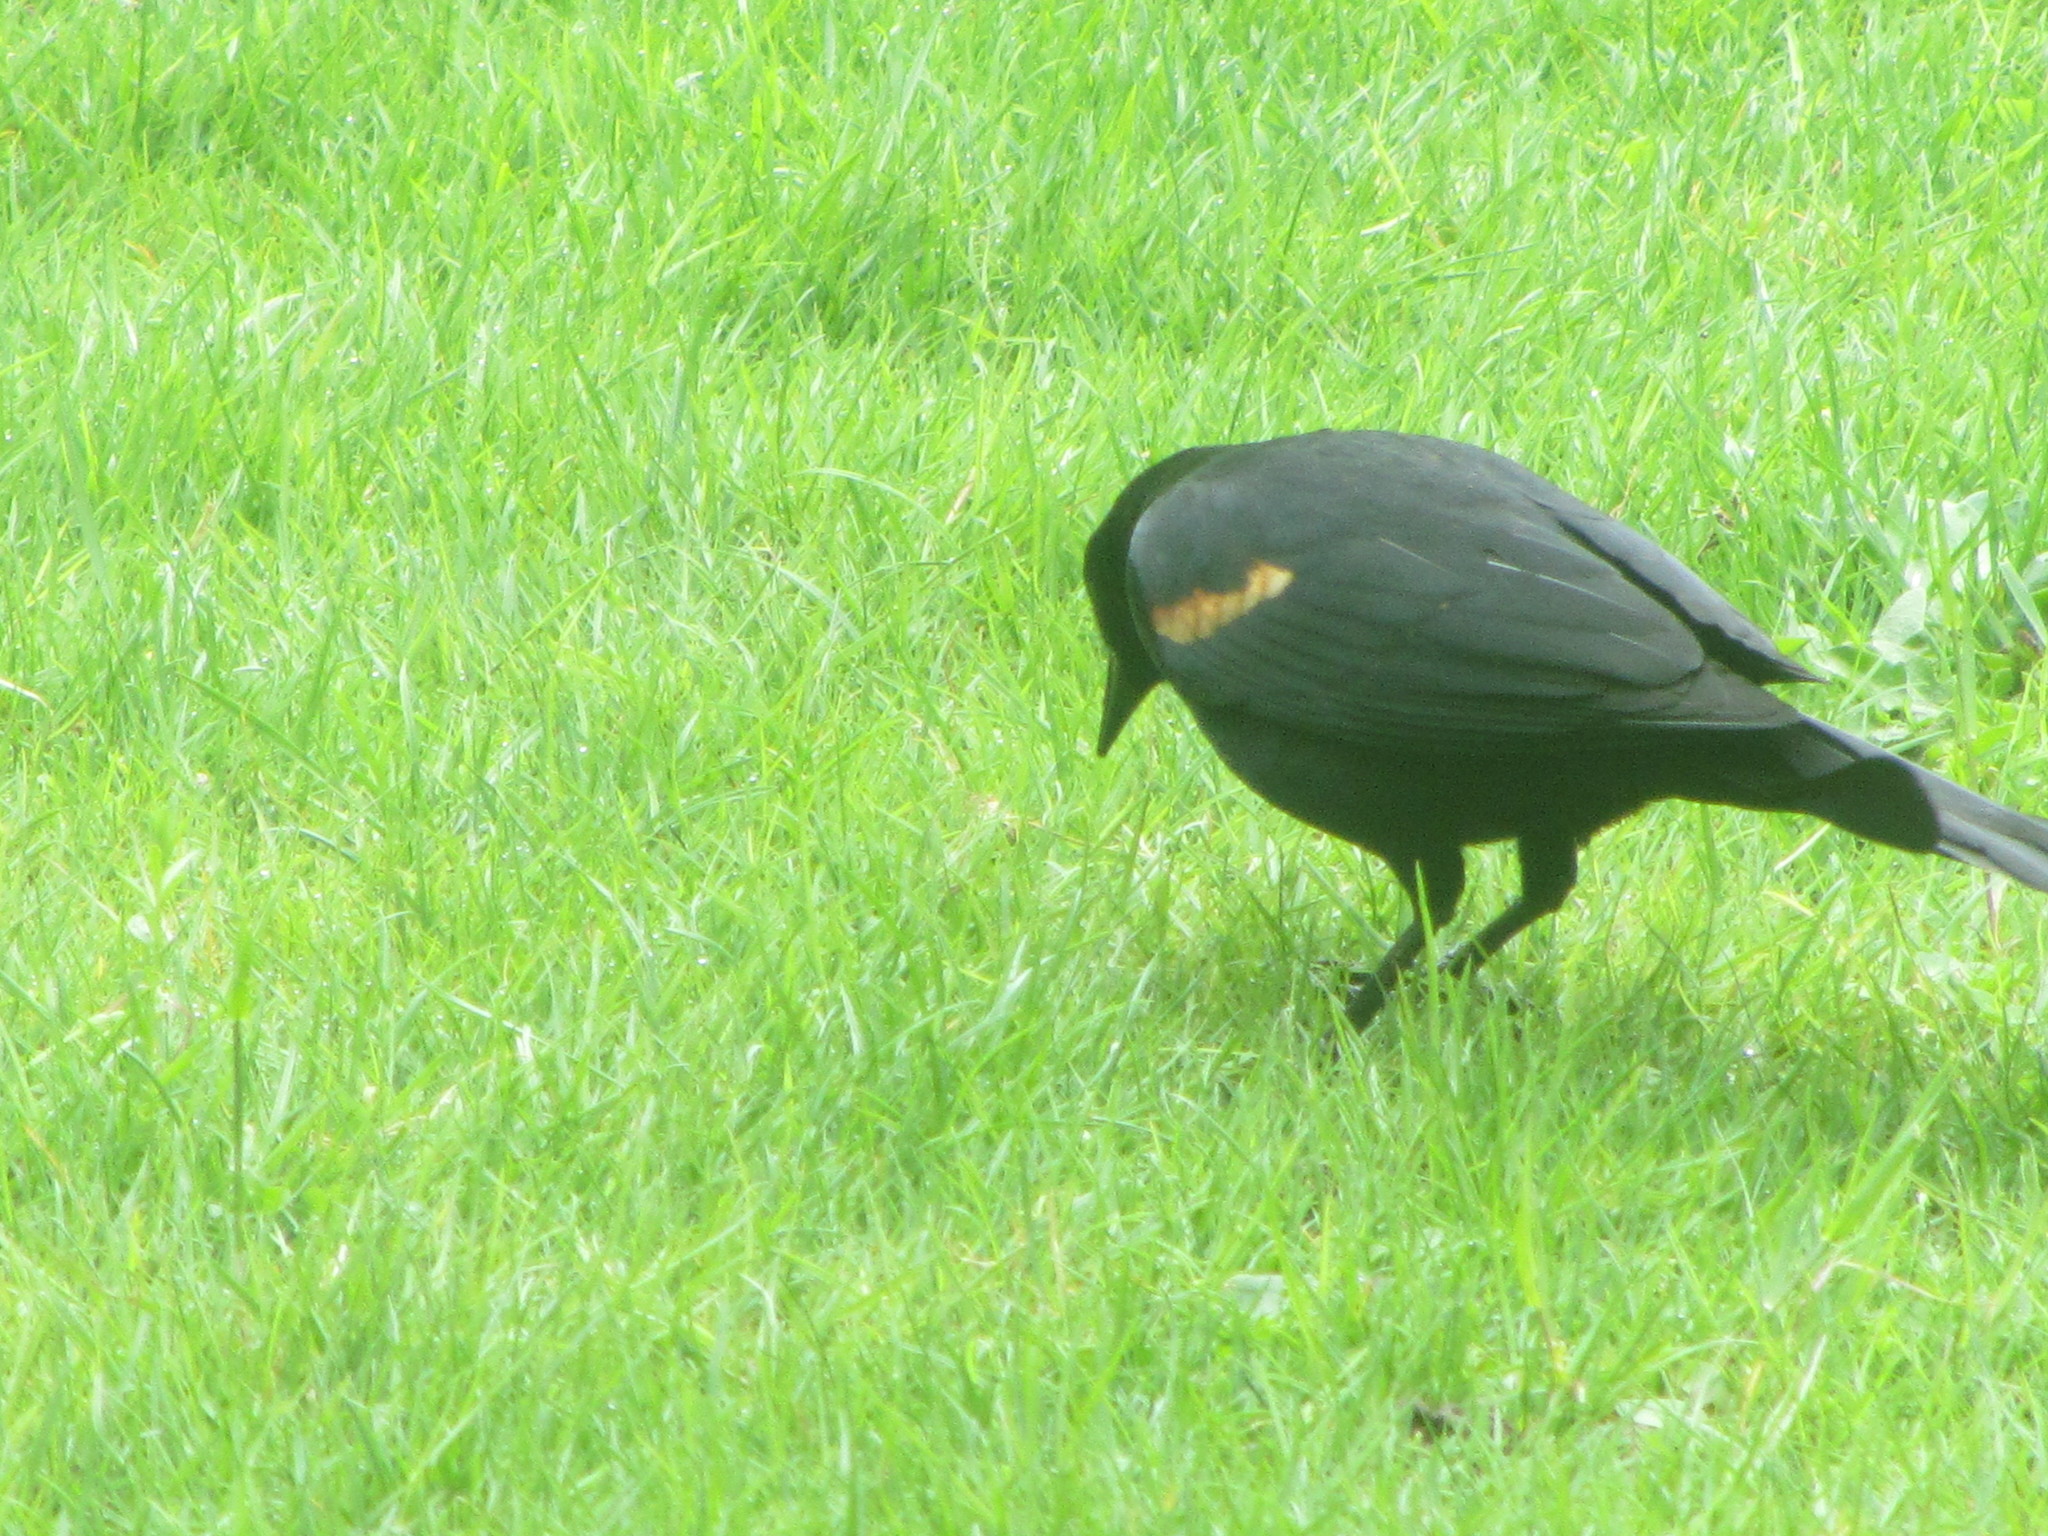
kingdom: Animalia
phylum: Chordata
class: Aves
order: Passeriformes
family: Icteridae
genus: Agelaius
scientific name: Agelaius phoeniceus
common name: Red-winged blackbird
